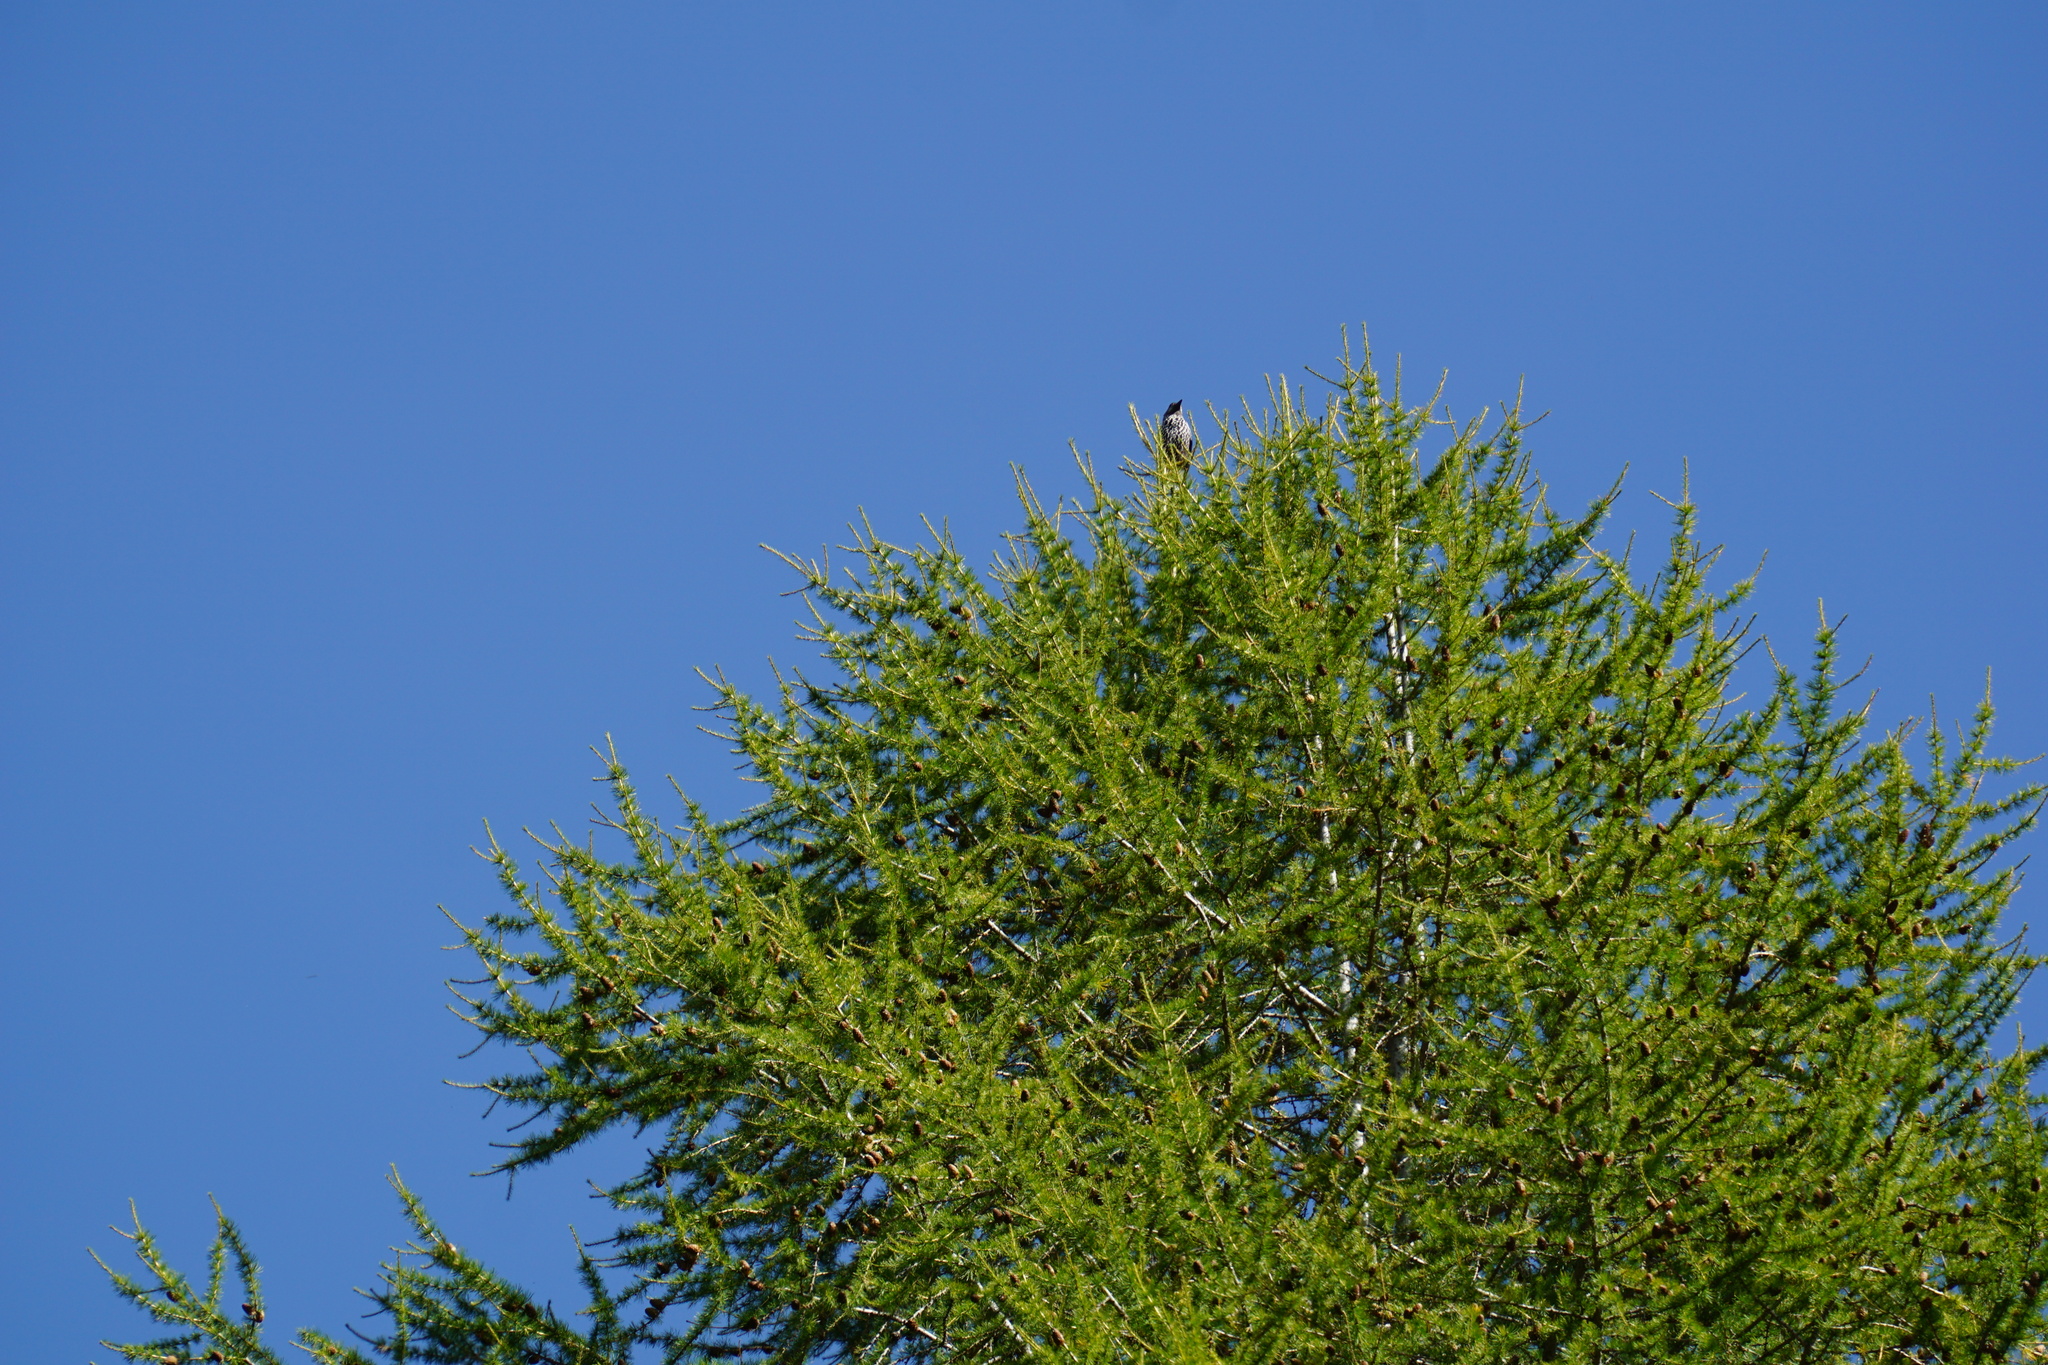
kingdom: Animalia
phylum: Chordata
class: Aves
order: Passeriformes
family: Corvidae
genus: Nucifraga
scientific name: Nucifraga caryocatactes
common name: Spotted nutcracker
